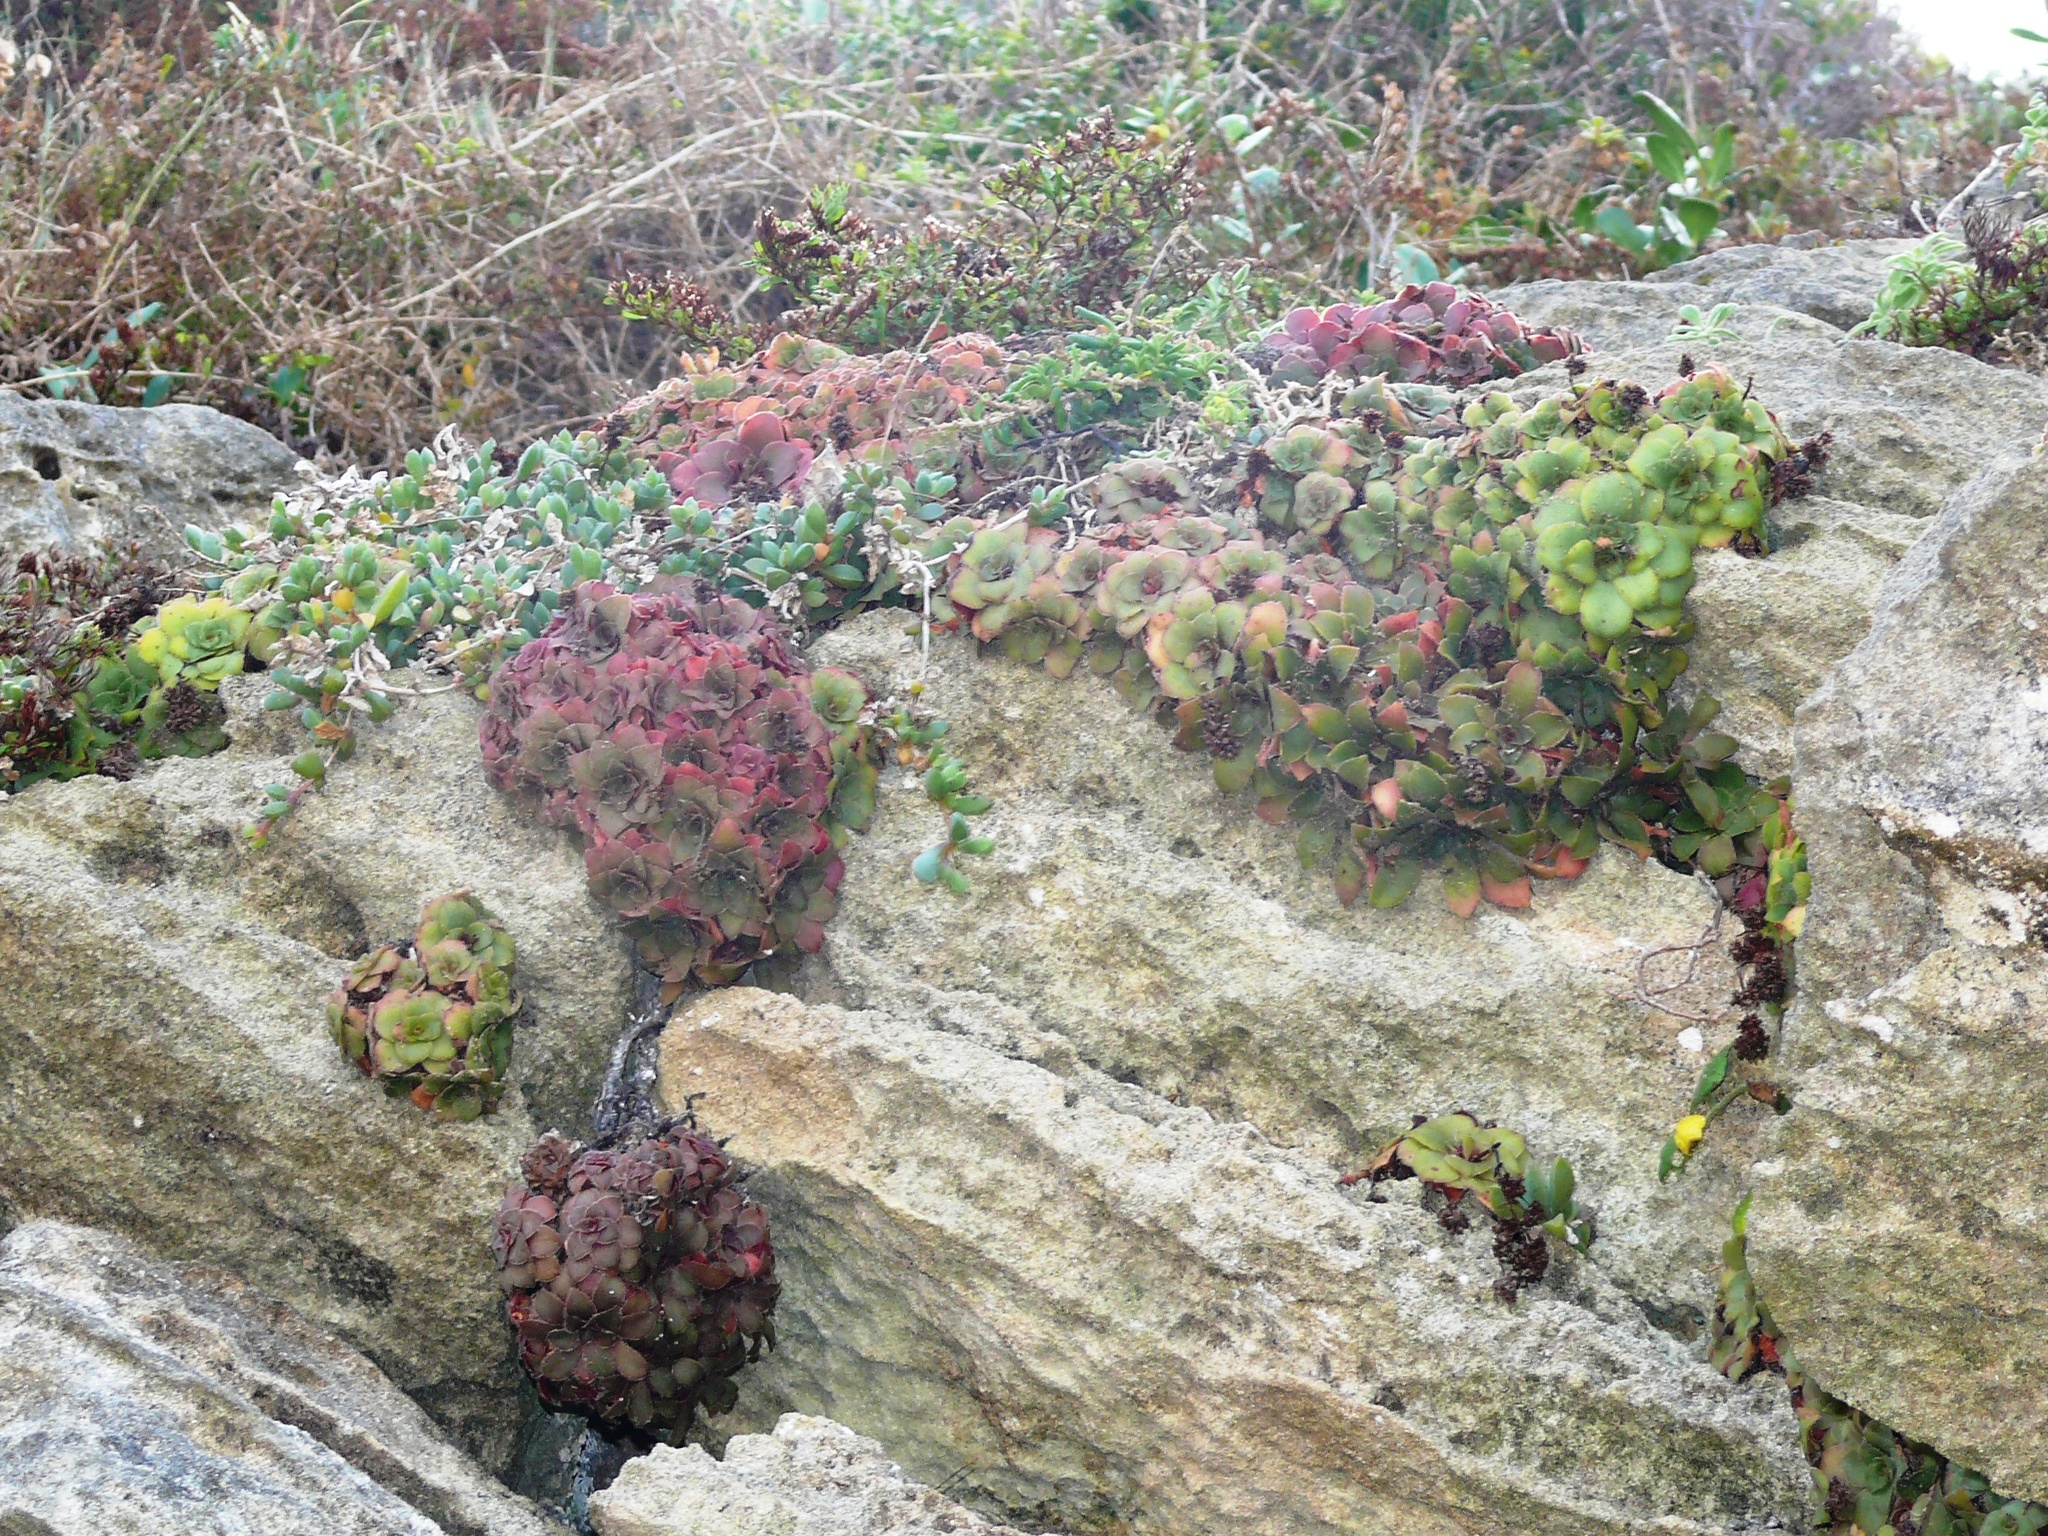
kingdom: Plantae
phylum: Tracheophyta
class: Magnoliopsida
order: Saxifragales
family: Crassulaceae
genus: Crassula
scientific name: Crassula orbicularis
